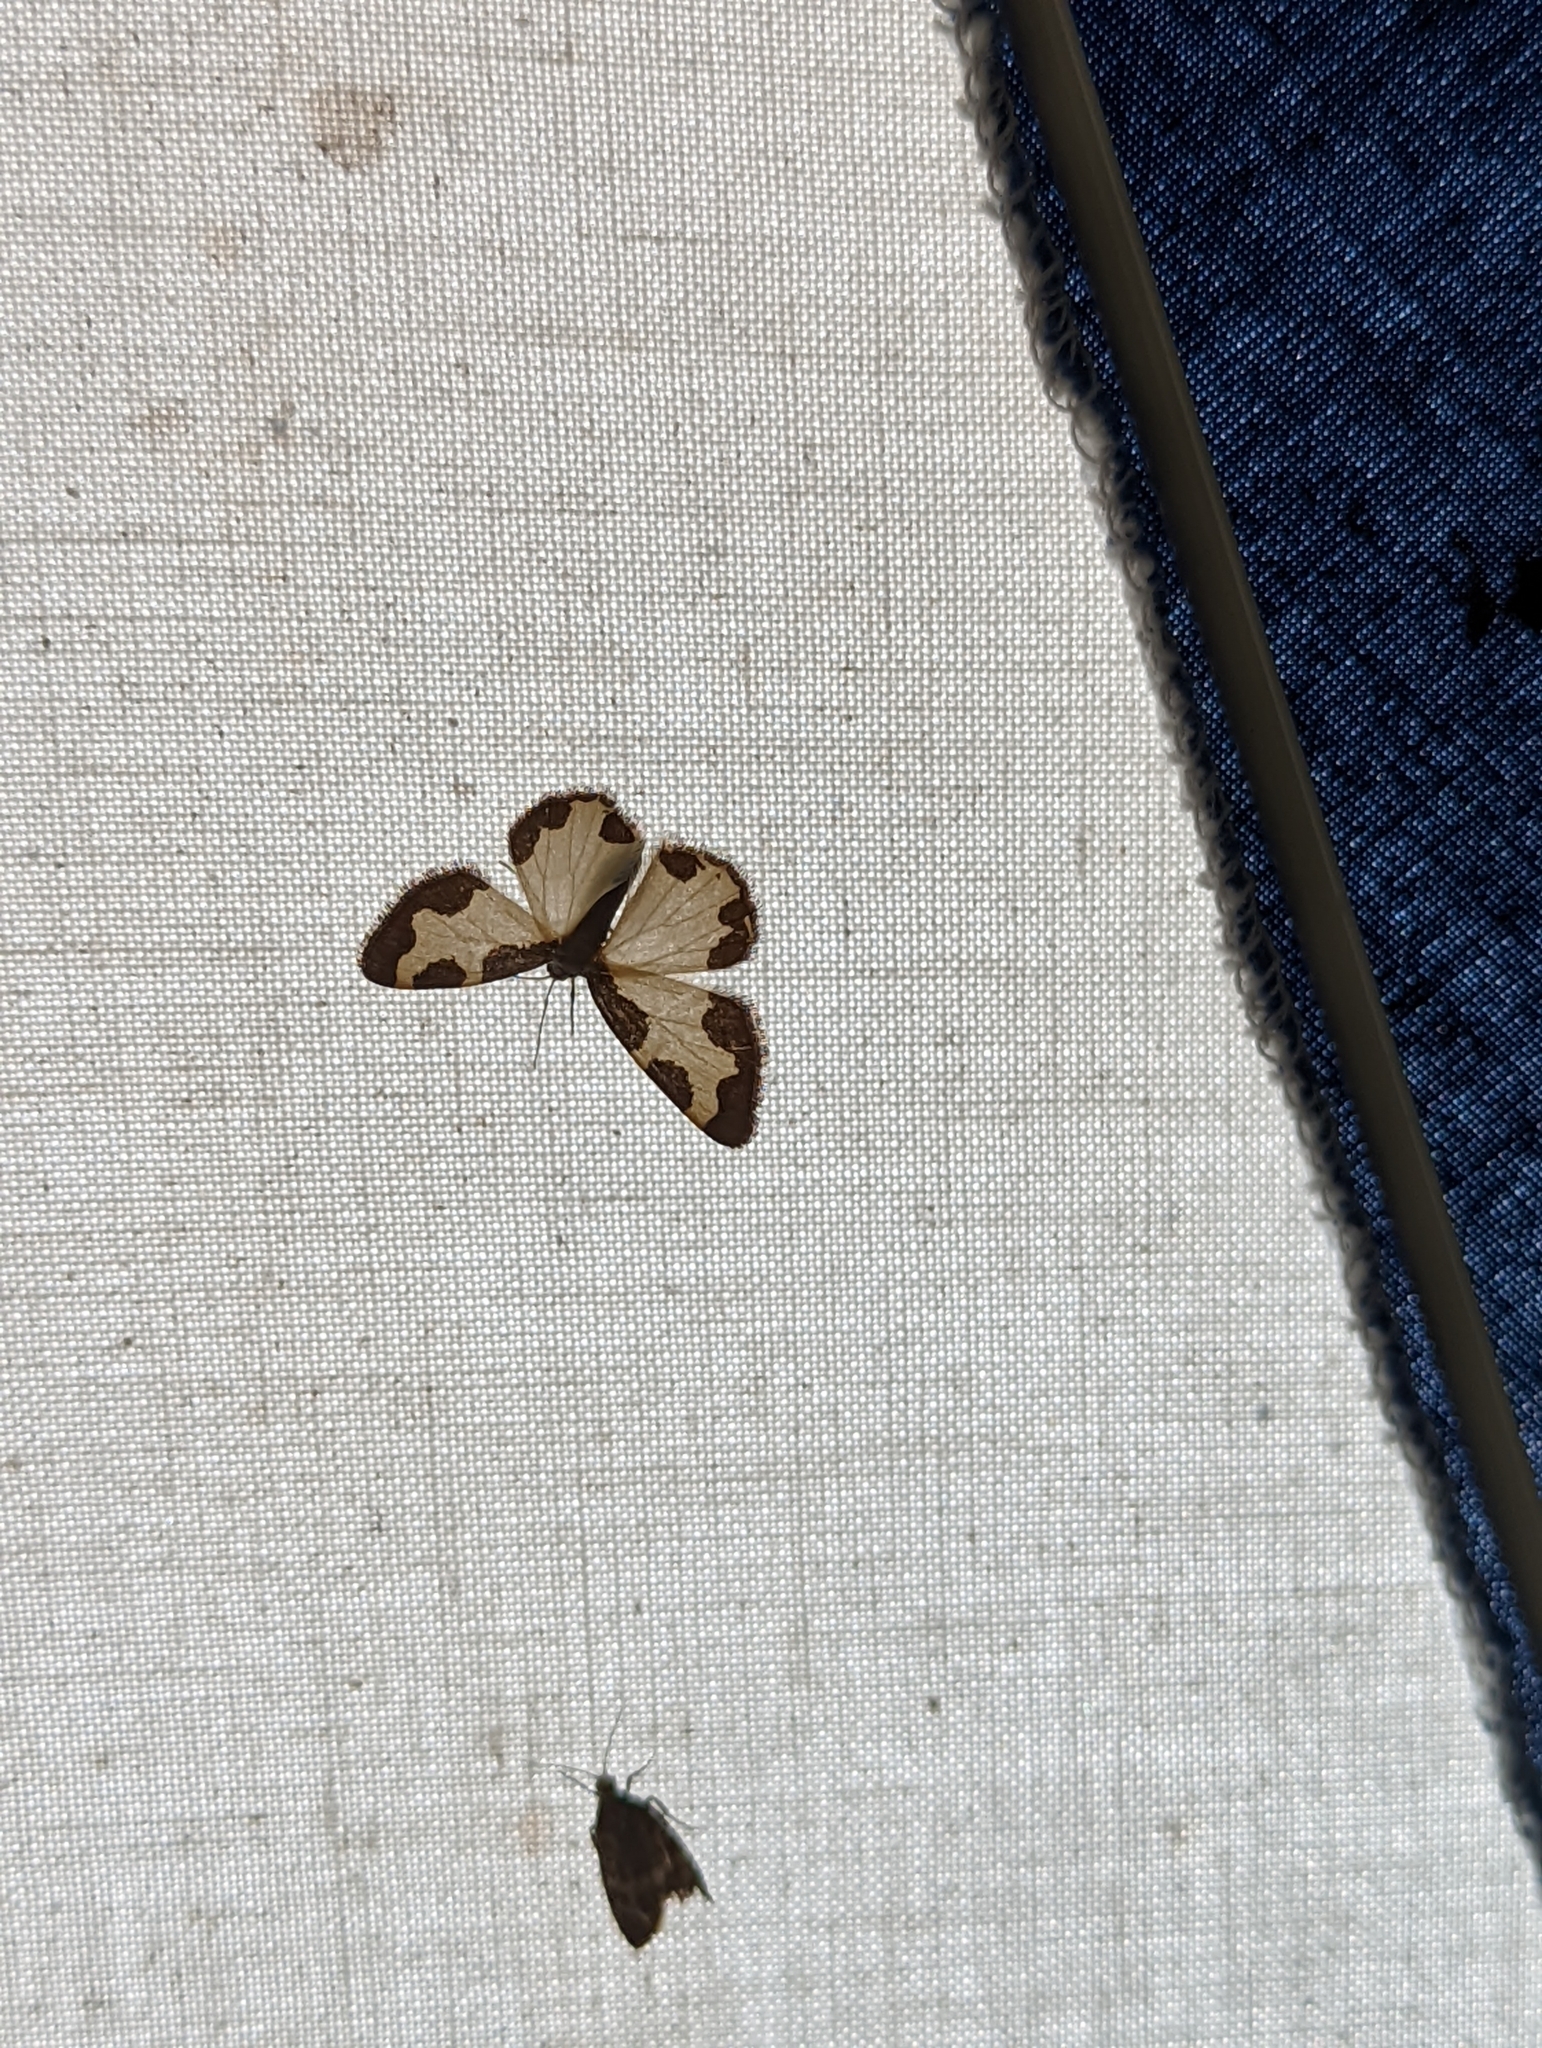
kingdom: Animalia
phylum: Arthropoda
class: Insecta
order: Lepidoptera
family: Geometridae
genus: Lomaspilis
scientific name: Lomaspilis marginata
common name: Clouded border
